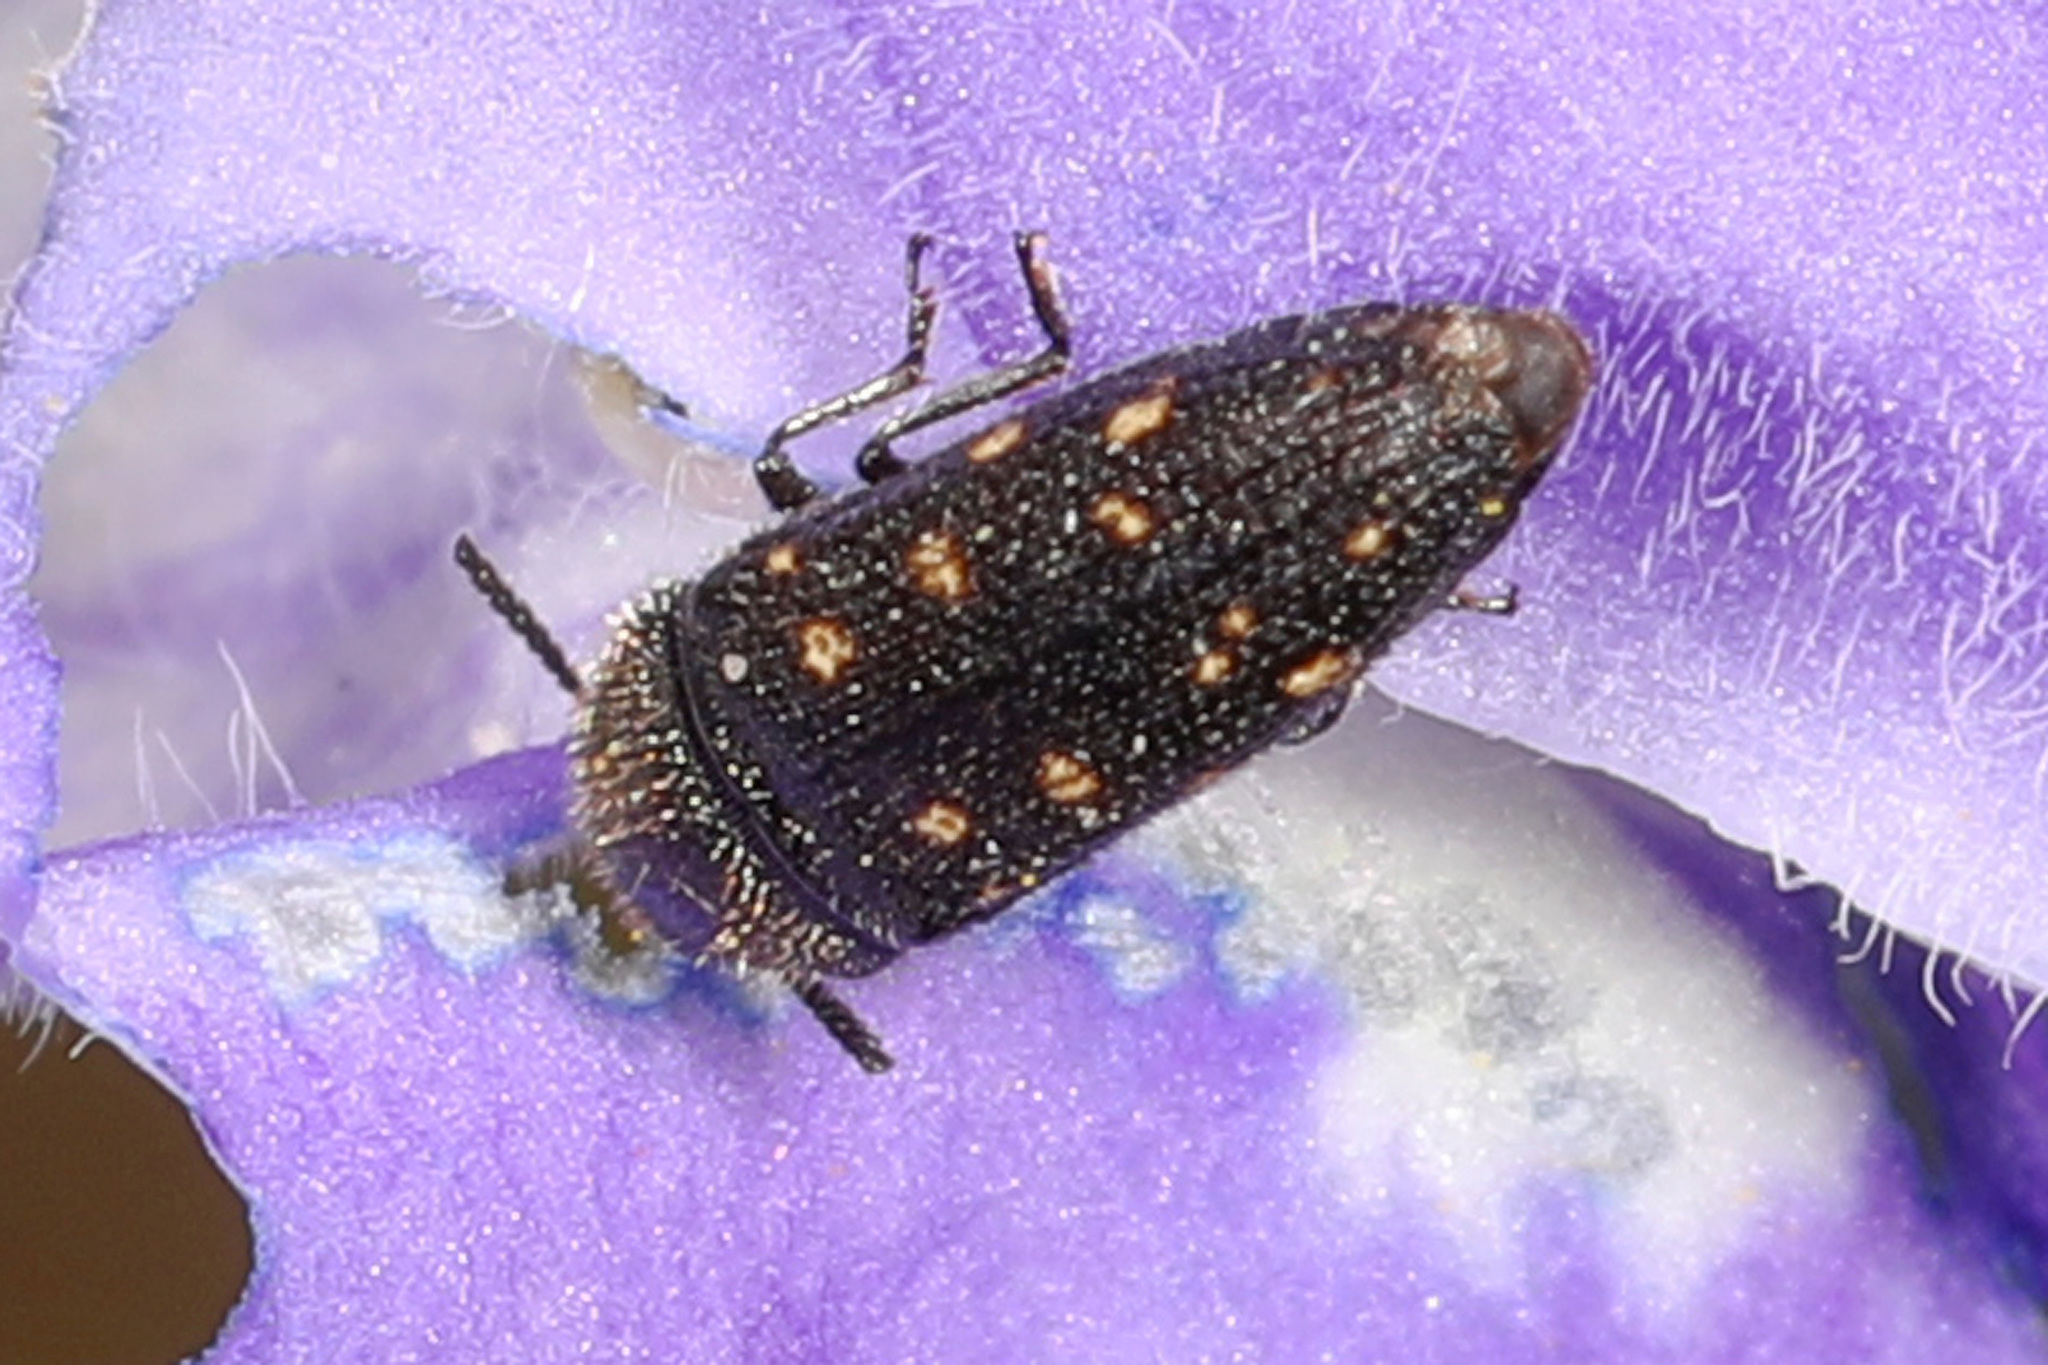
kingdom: Animalia
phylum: Arthropoda
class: Insecta
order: Coleoptera
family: Buprestidae
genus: Acmaeodera
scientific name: Acmaeodera tubulus
